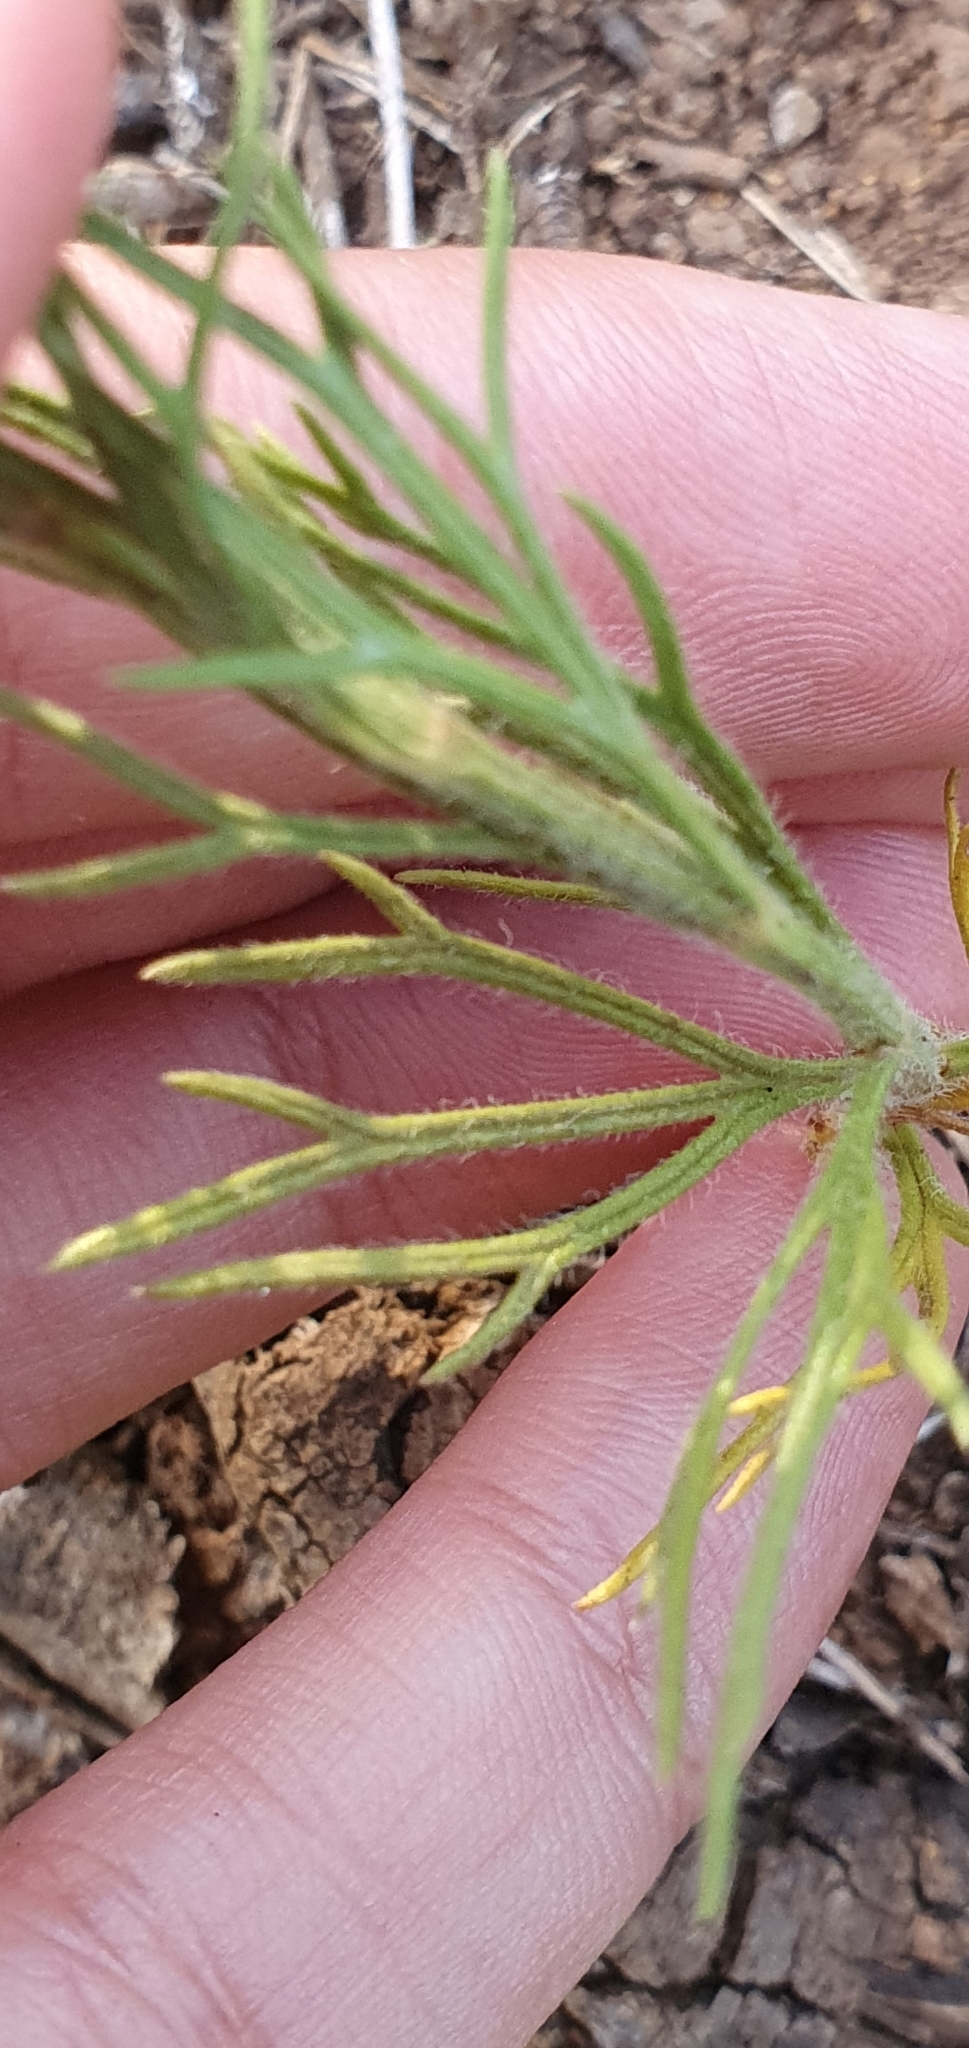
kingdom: Plantae
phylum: Tracheophyta
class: Magnoliopsida
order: Lamiales
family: Lamiaceae
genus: Teucrium
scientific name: Teucrium pseudochamaepitys
